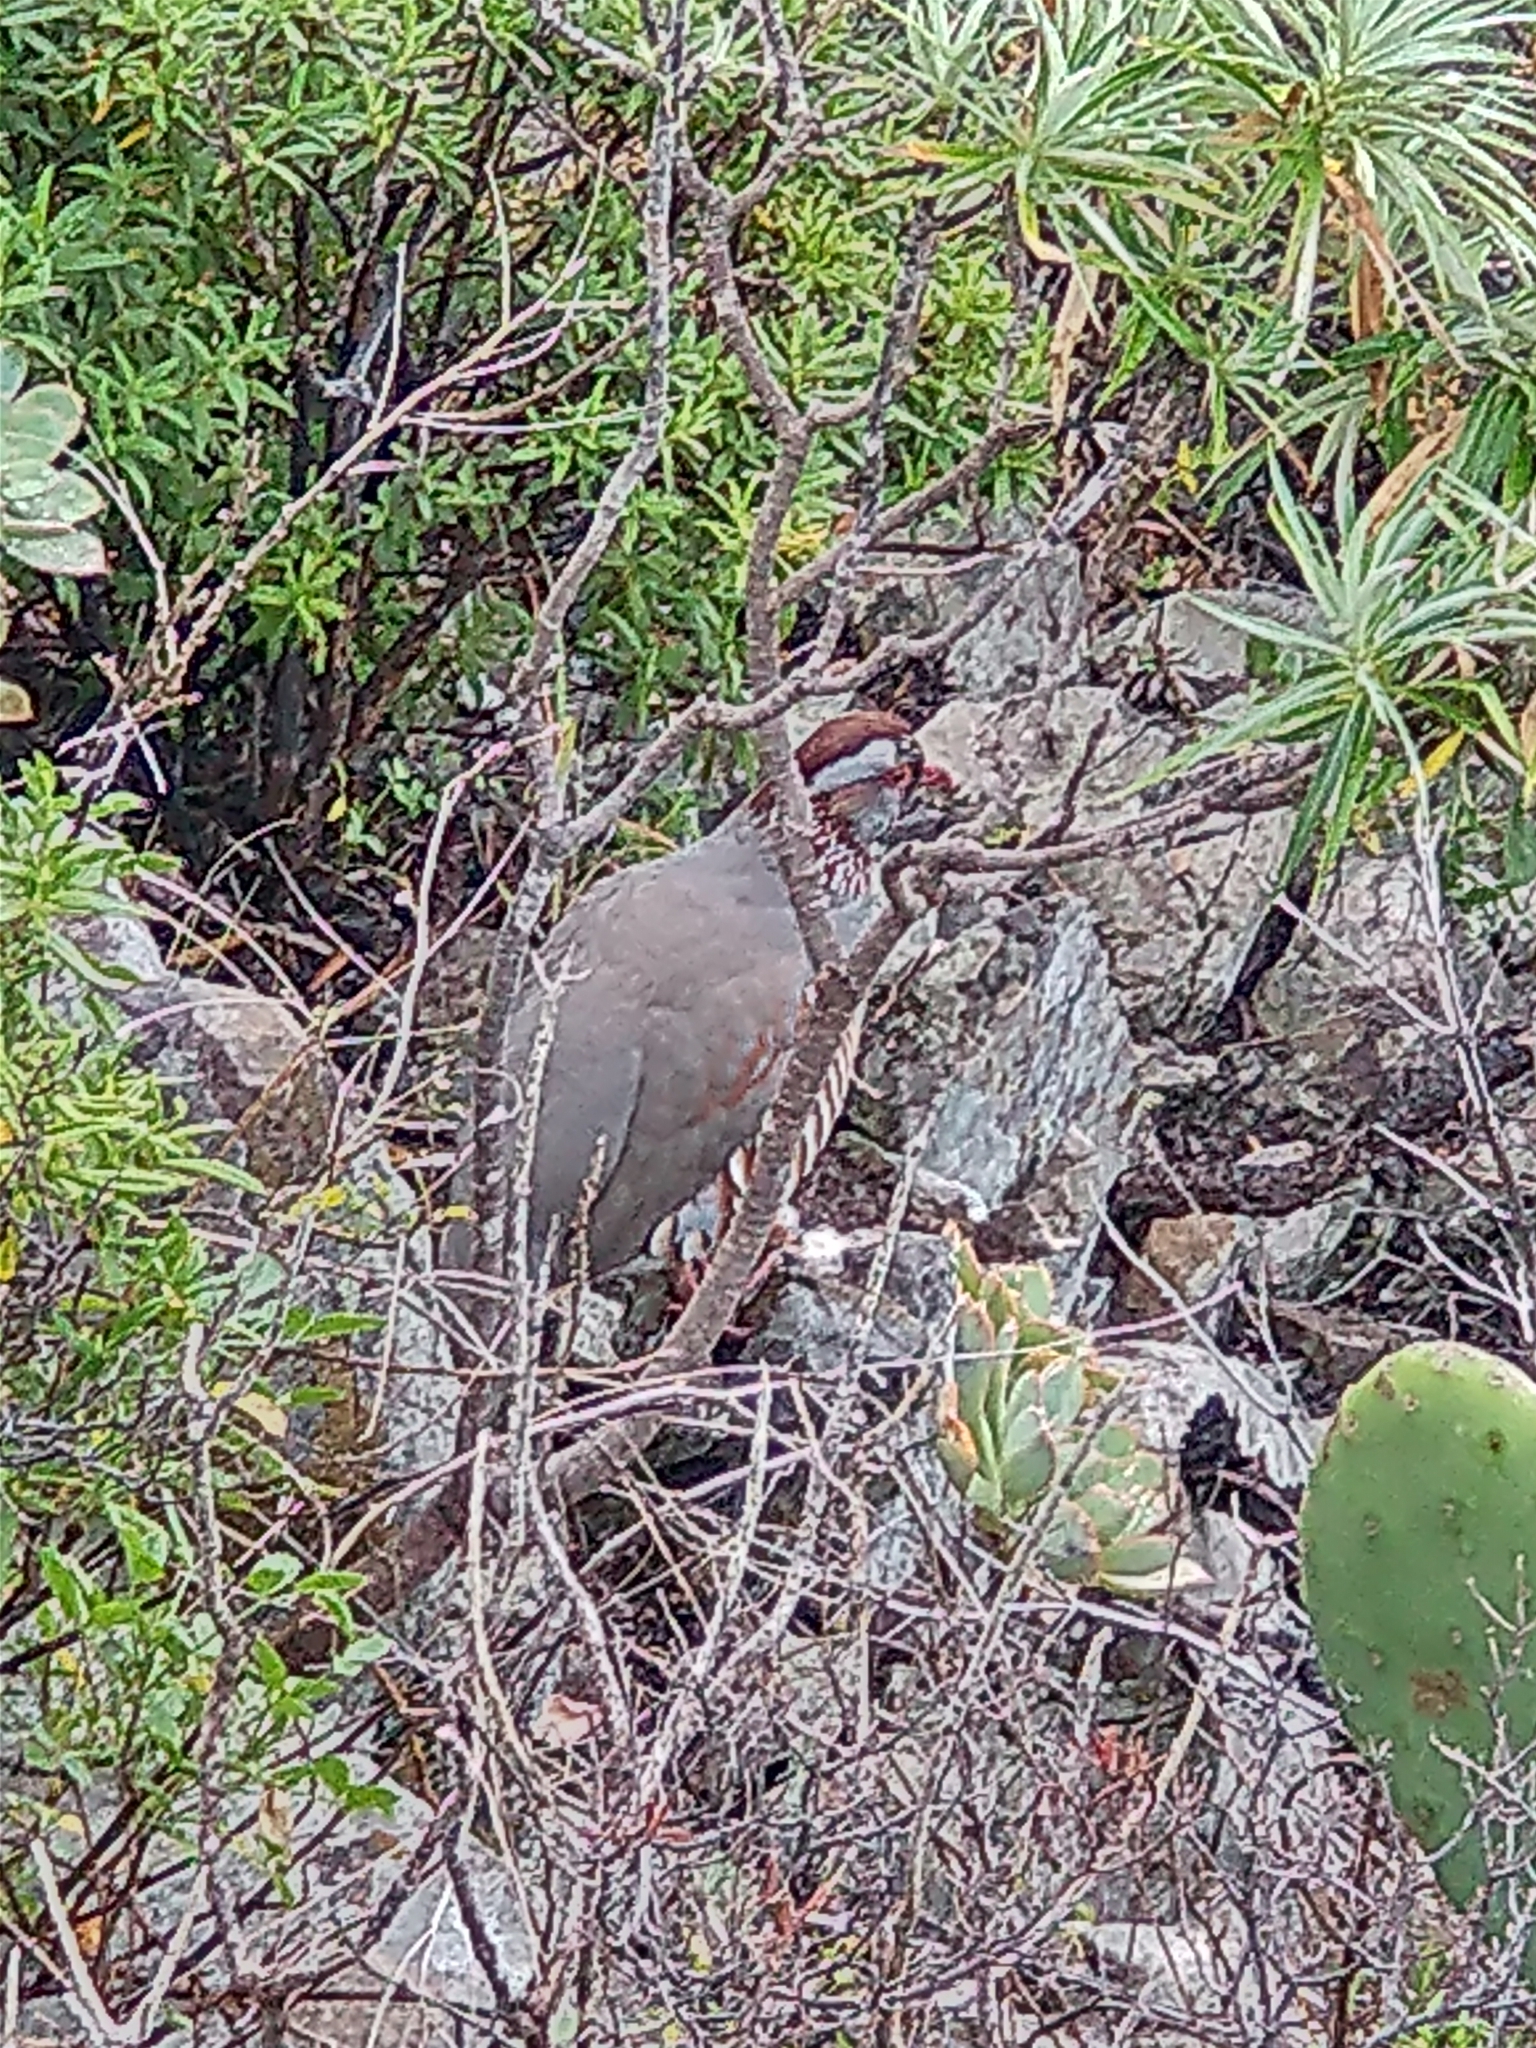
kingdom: Animalia
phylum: Chordata
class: Aves
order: Galliformes
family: Phasianidae
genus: Alectoris
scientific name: Alectoris barbara
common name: Barbary partridge
